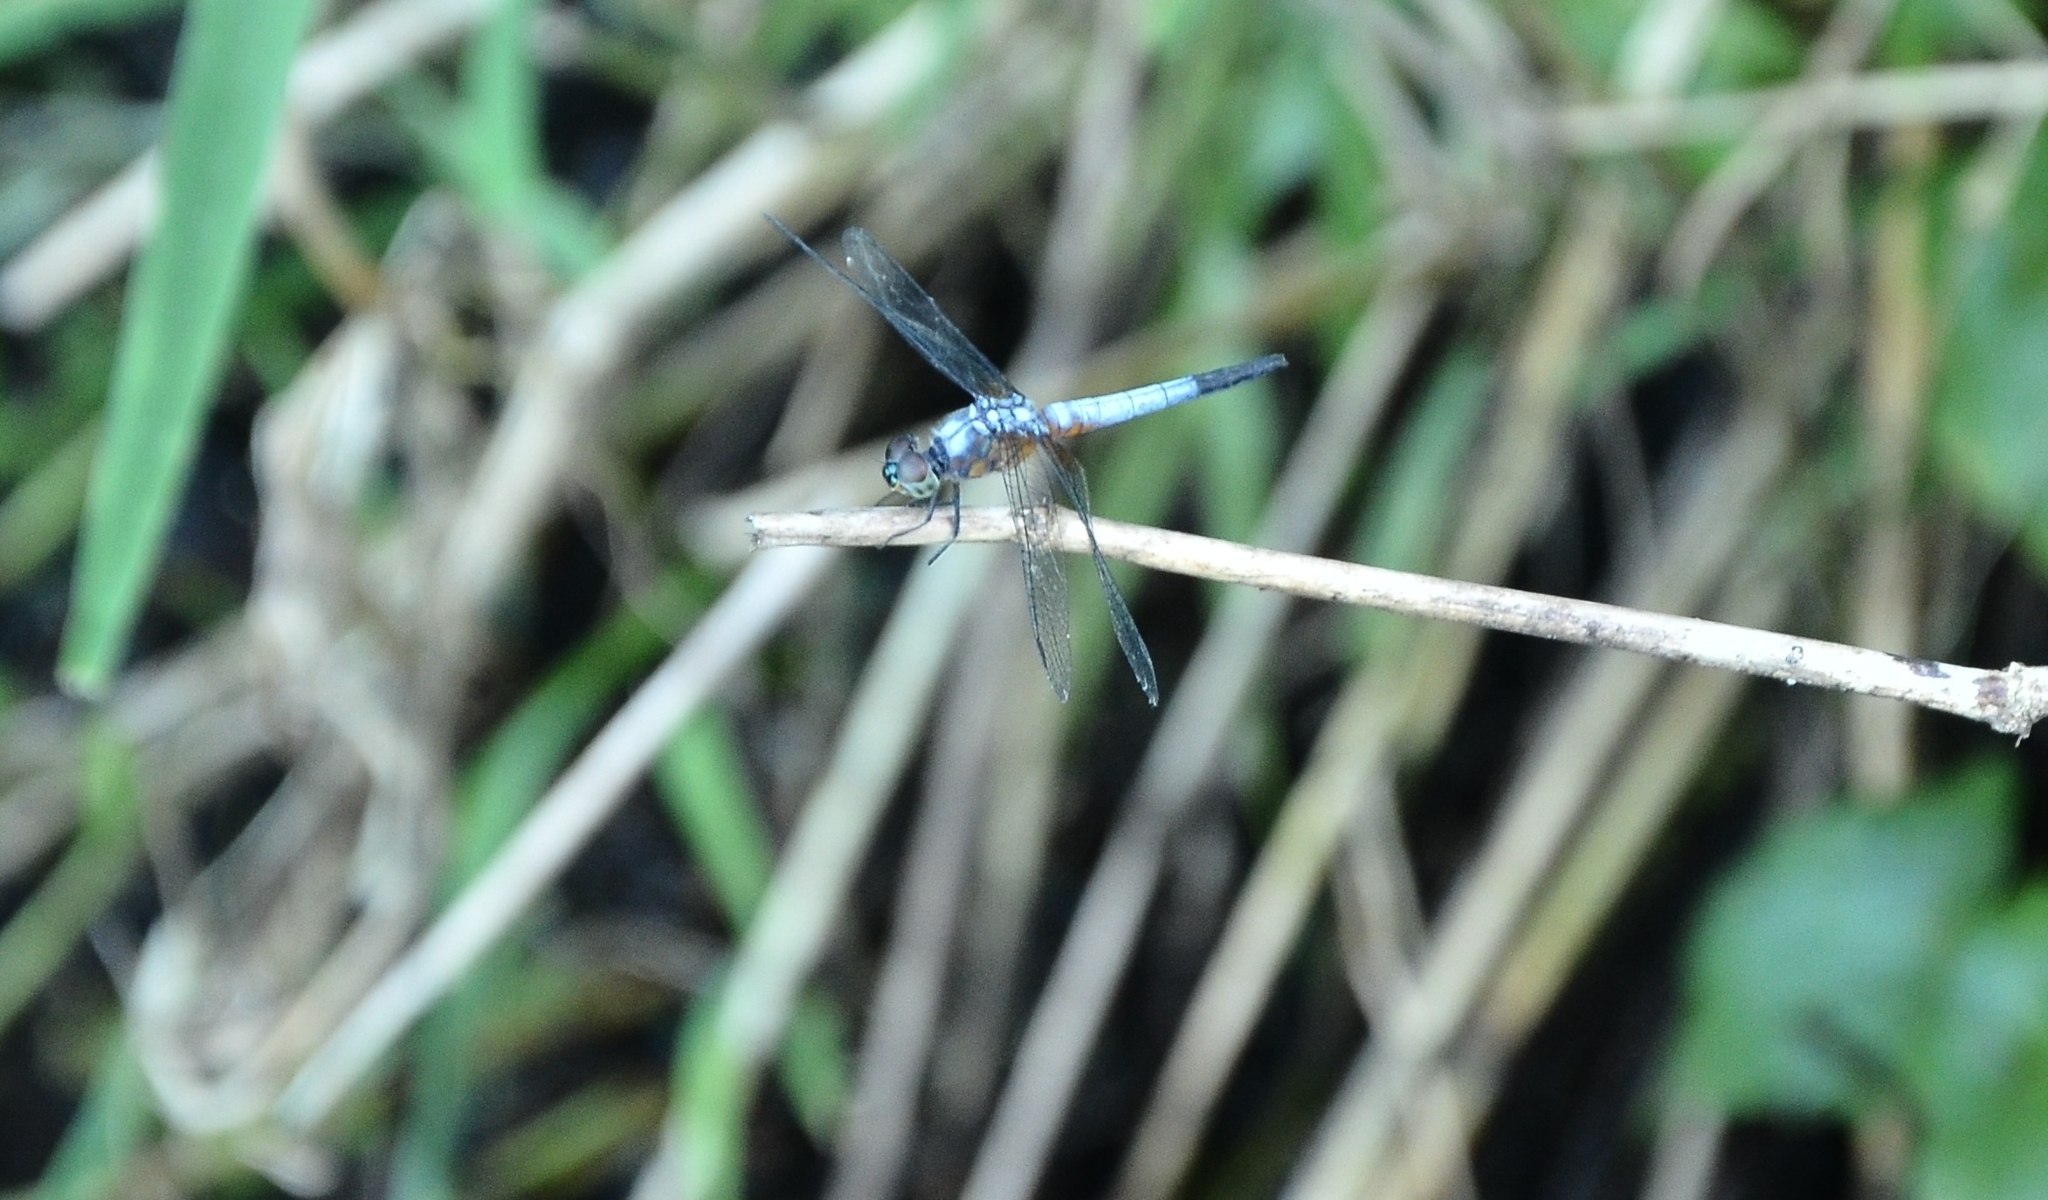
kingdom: Animalia
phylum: Arthropoda
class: Insecta
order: Odonata
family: Libellulidae
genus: Brachydiplax
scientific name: Brachydiplax chalybea
